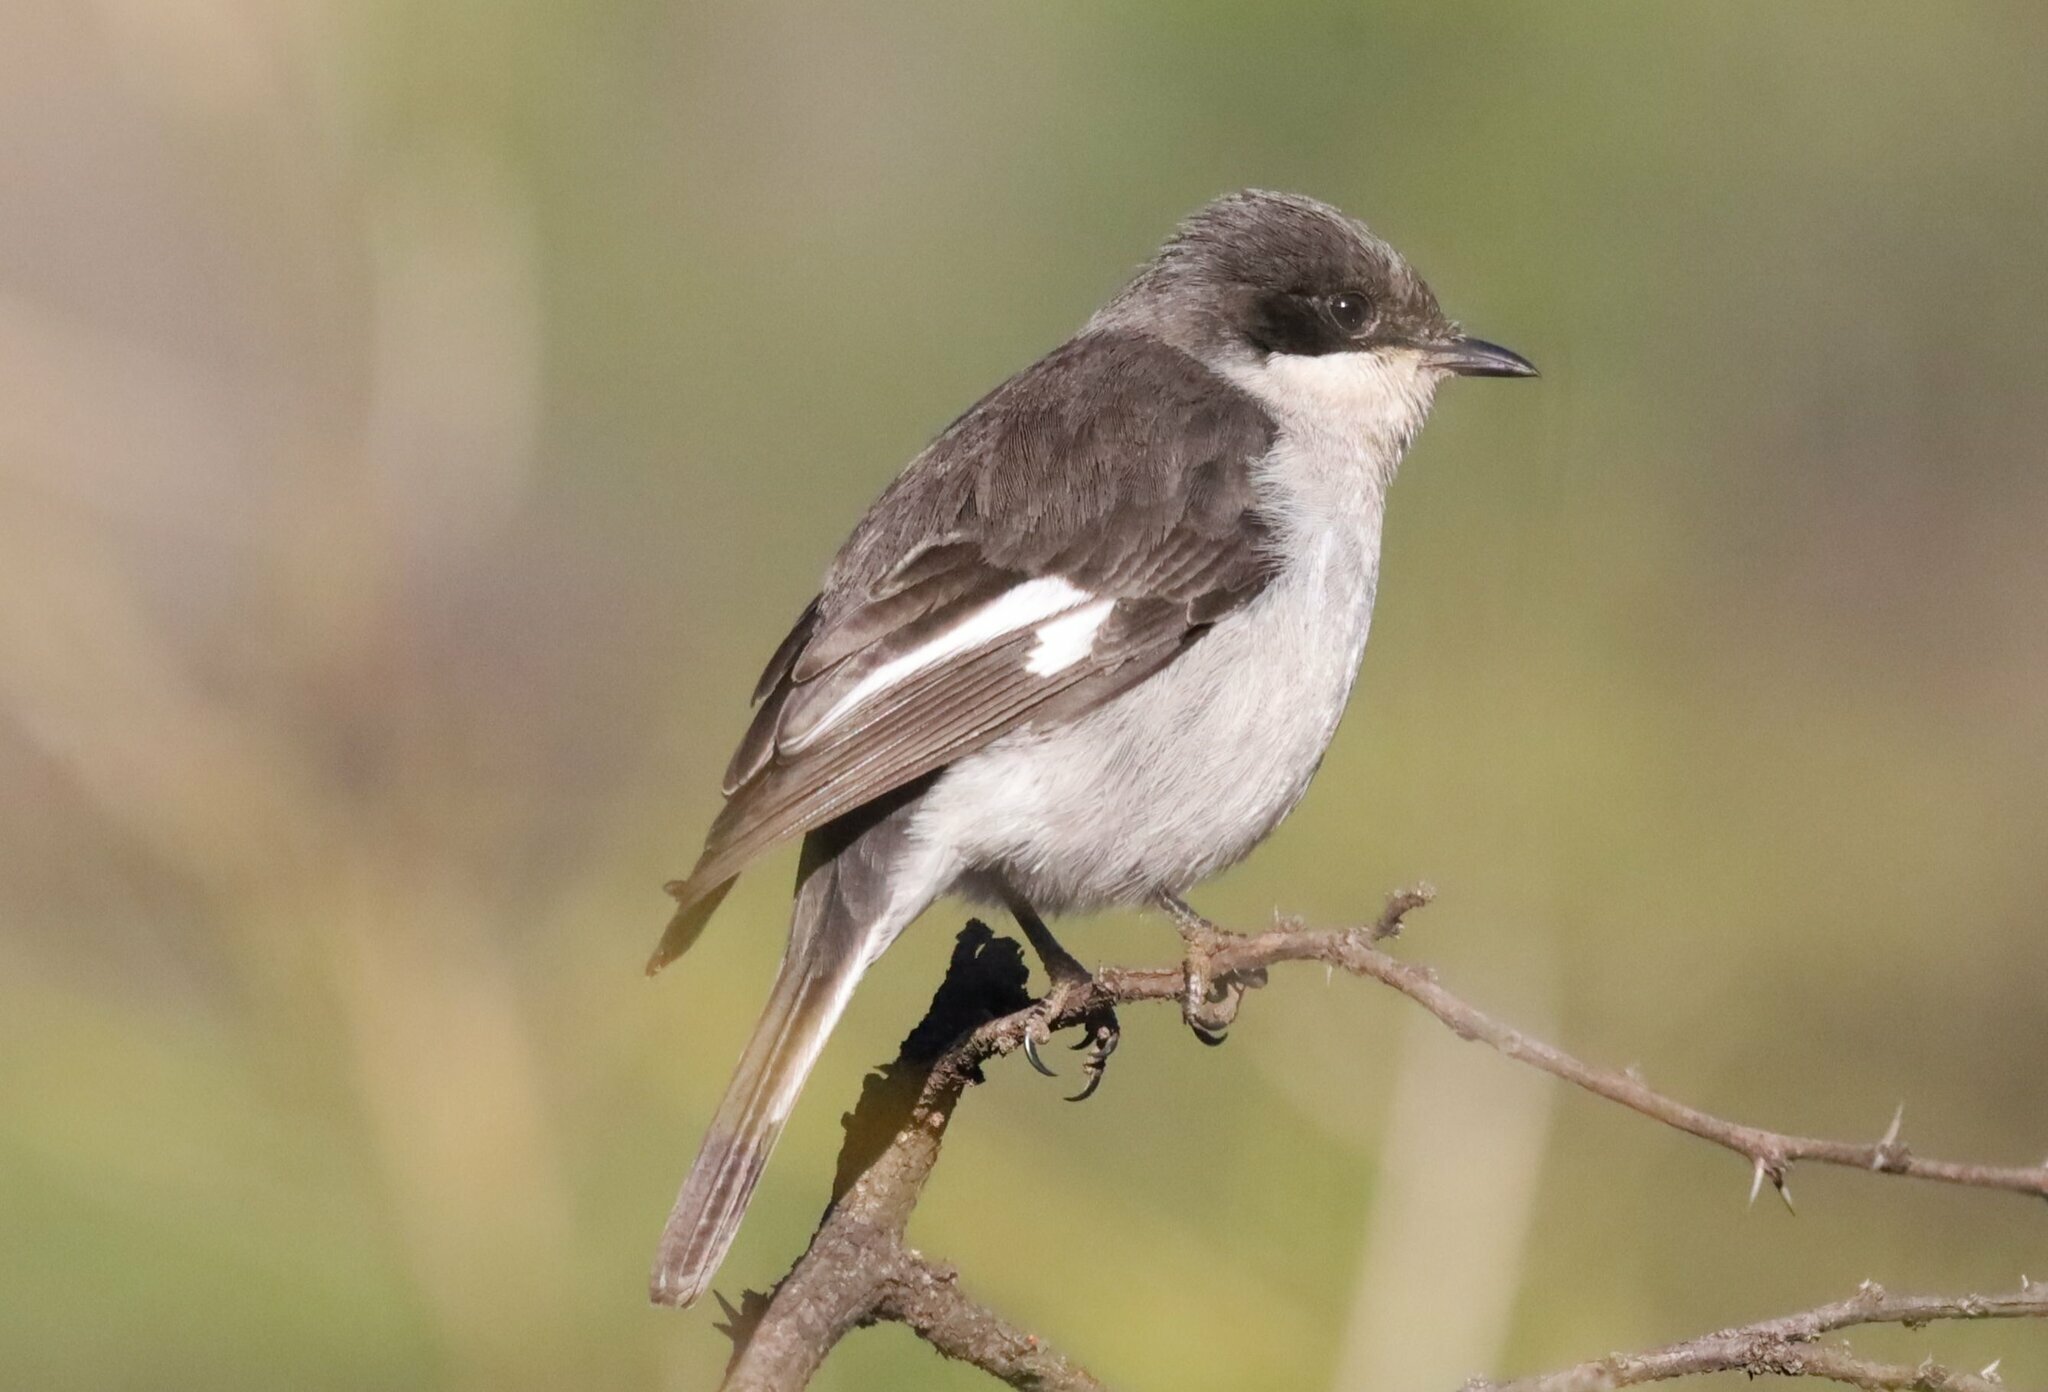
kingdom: Animalia
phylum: Chordata
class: Aves
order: Passeriformes
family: Muscicapidae
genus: Sigelus
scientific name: Sigelus silens
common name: Fiscal flycatcher
